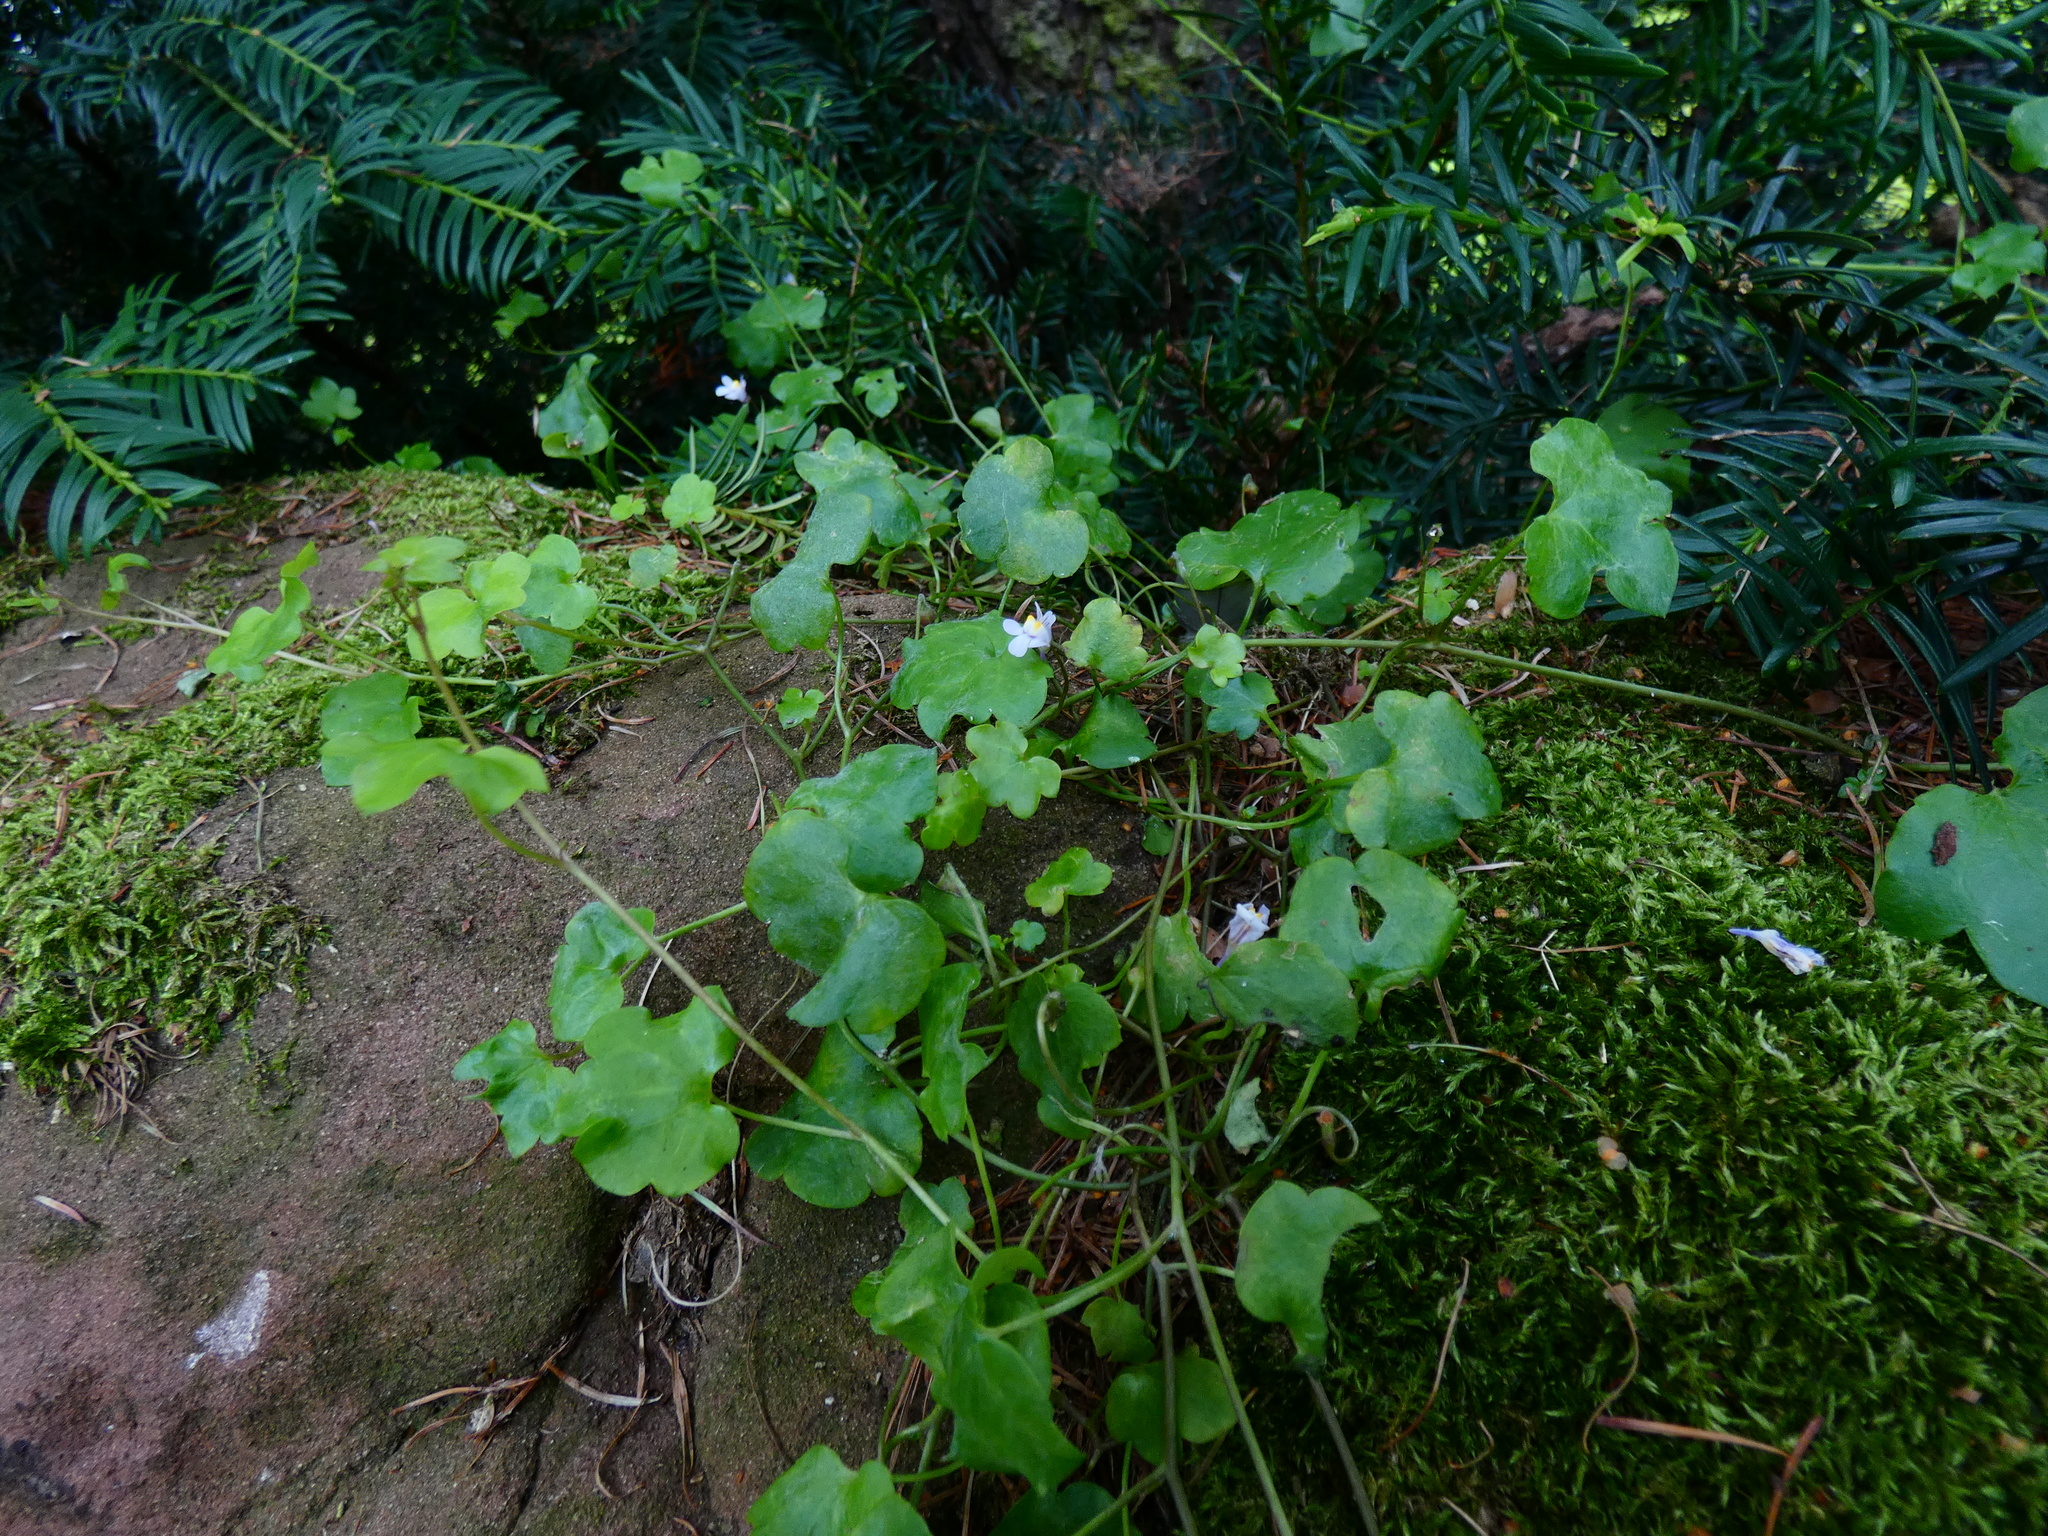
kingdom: Plantae
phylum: Tracheophyta
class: Magnoliopsida
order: Lamiales
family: Plantaginaceae
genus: Cymbalaria
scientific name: Cymbalaria muralis
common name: Ivy-leaved toadflax
